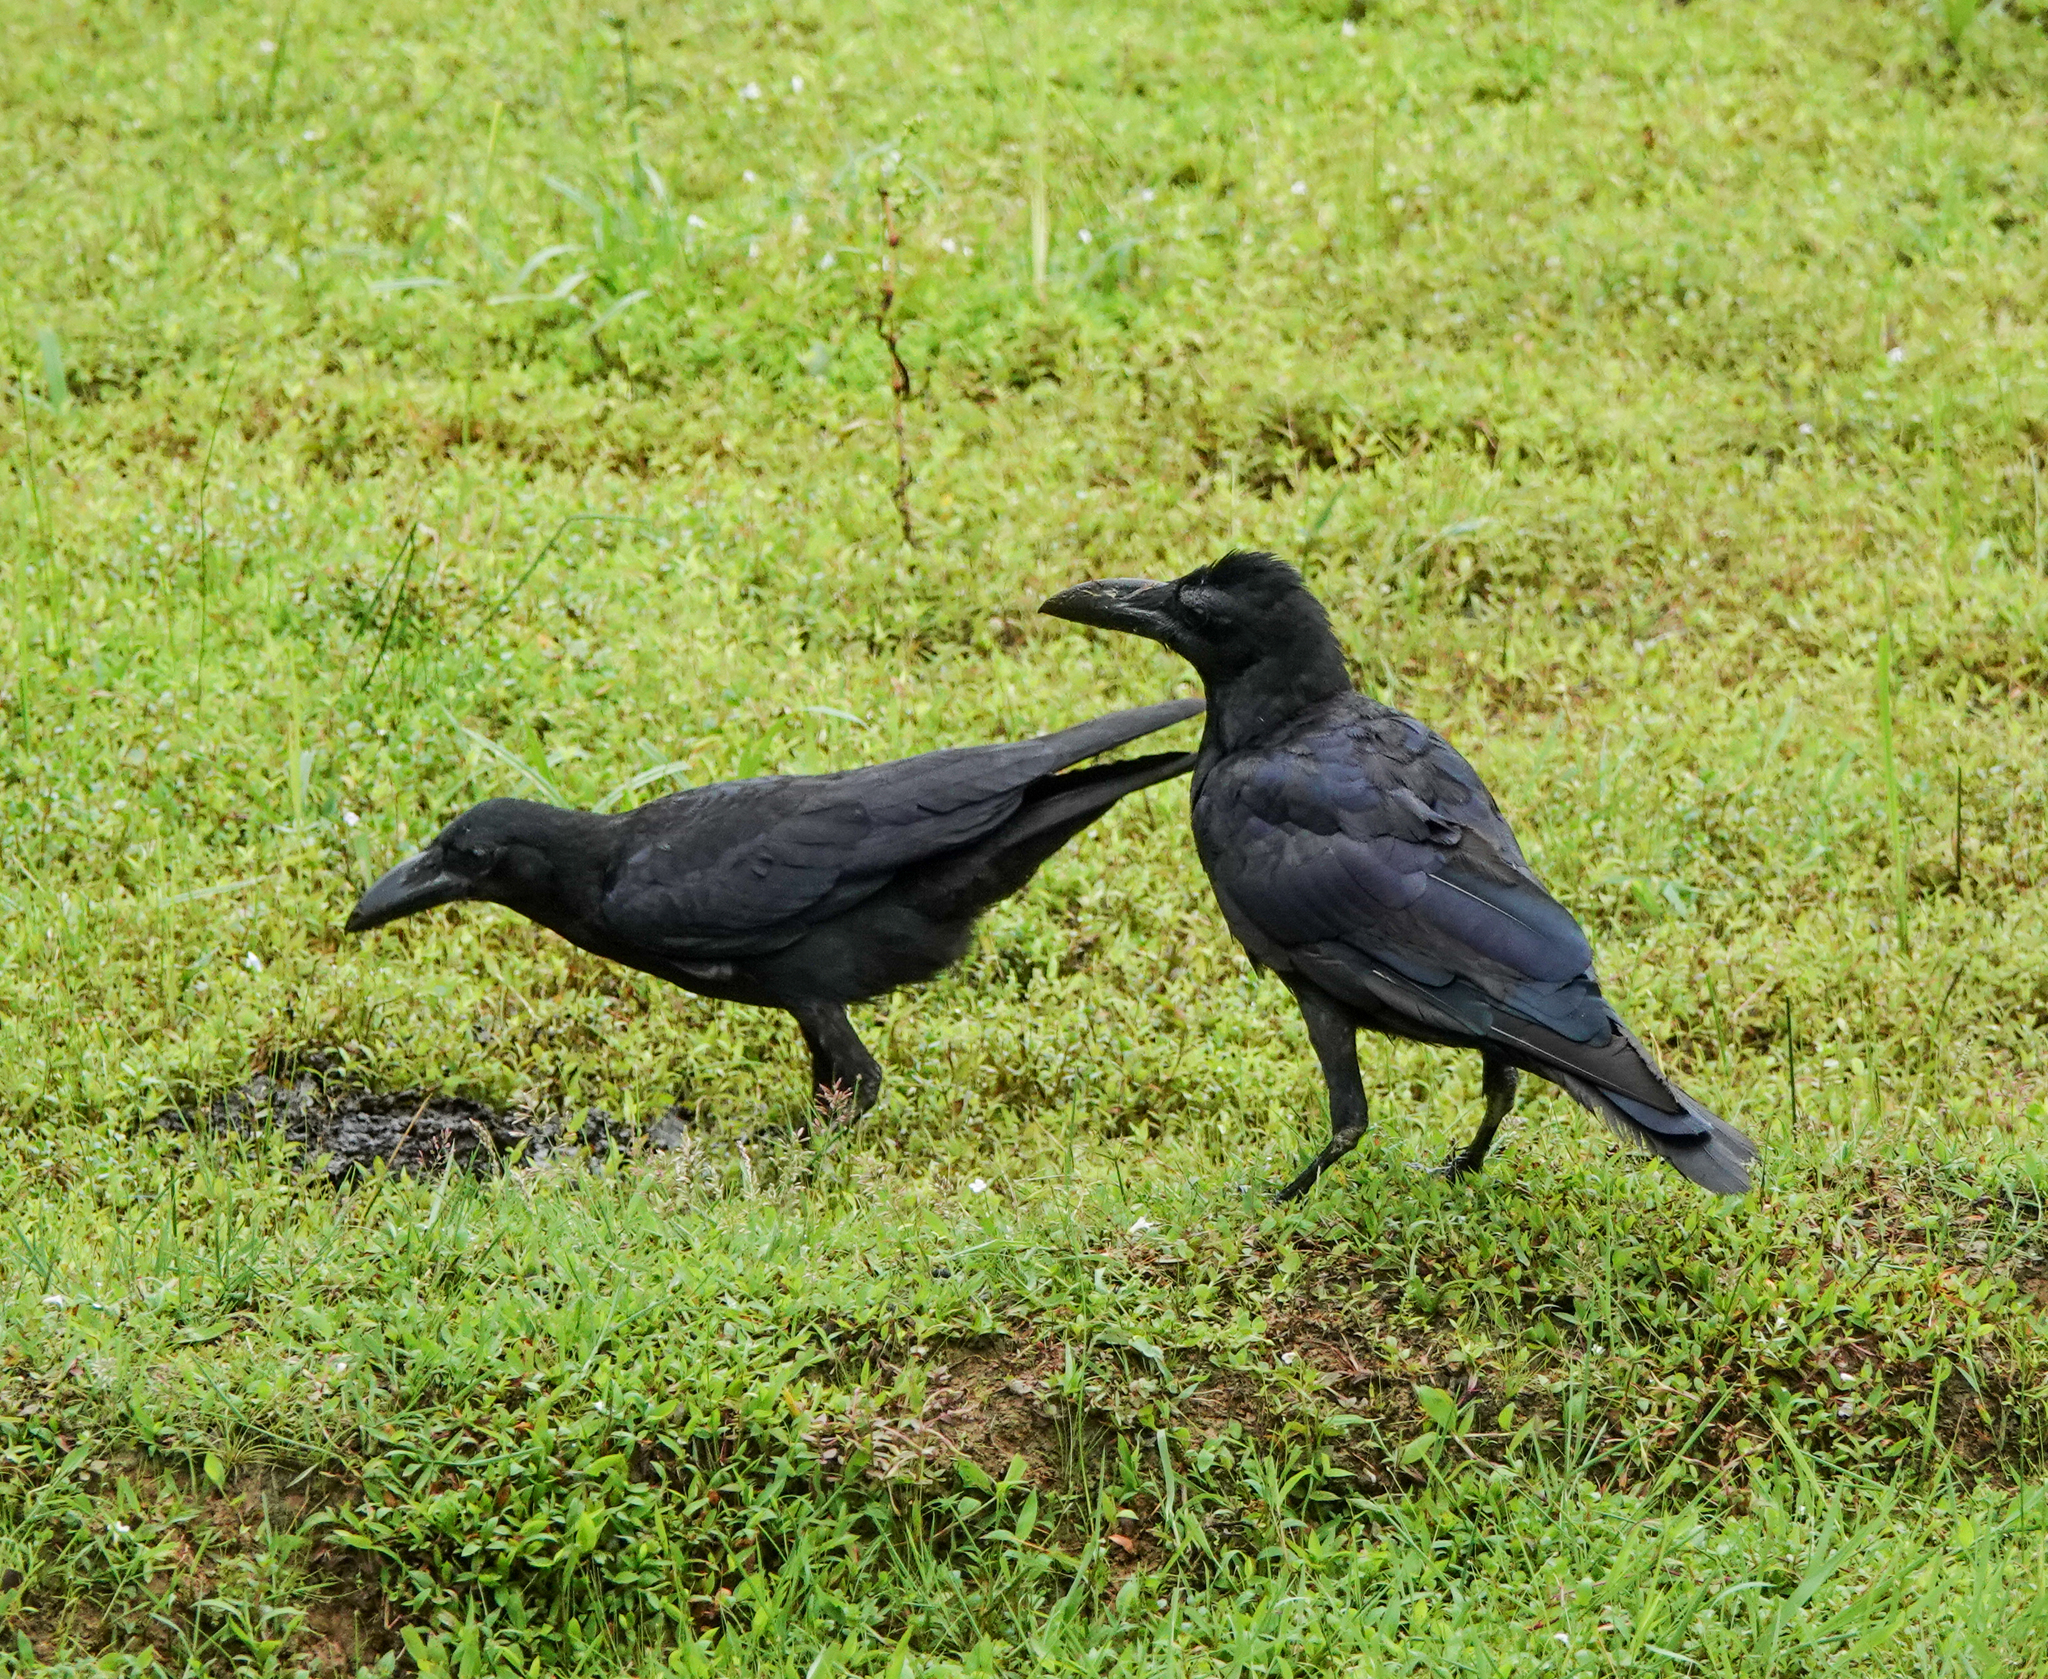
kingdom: Animalia
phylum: Chordata
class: Aves
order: Passeriformes
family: Corvidae
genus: Corvus
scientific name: Corvus macrorhynchos
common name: Large-billed crow
